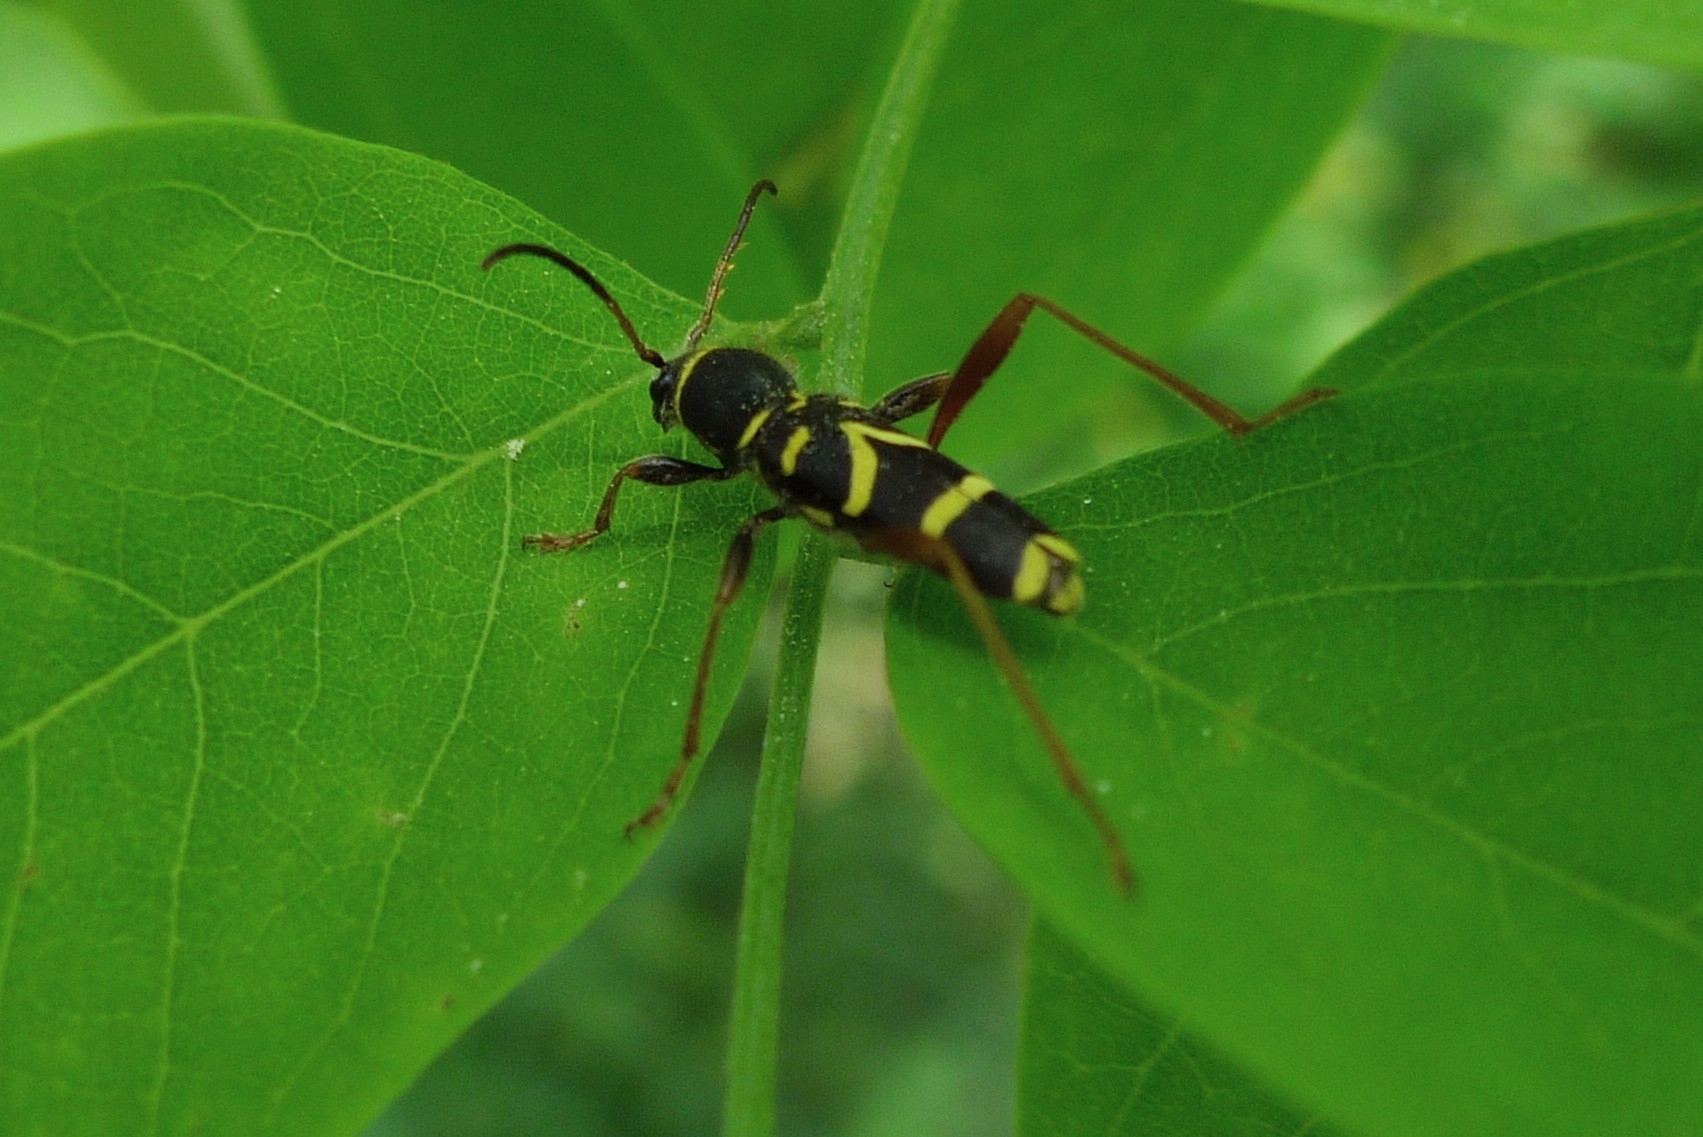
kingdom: Animalia
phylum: Arthropoda
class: Insecta
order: Coleoptera
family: Cerambycidae
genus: Clytus
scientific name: Clytus arietis
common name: Wasp beetle
